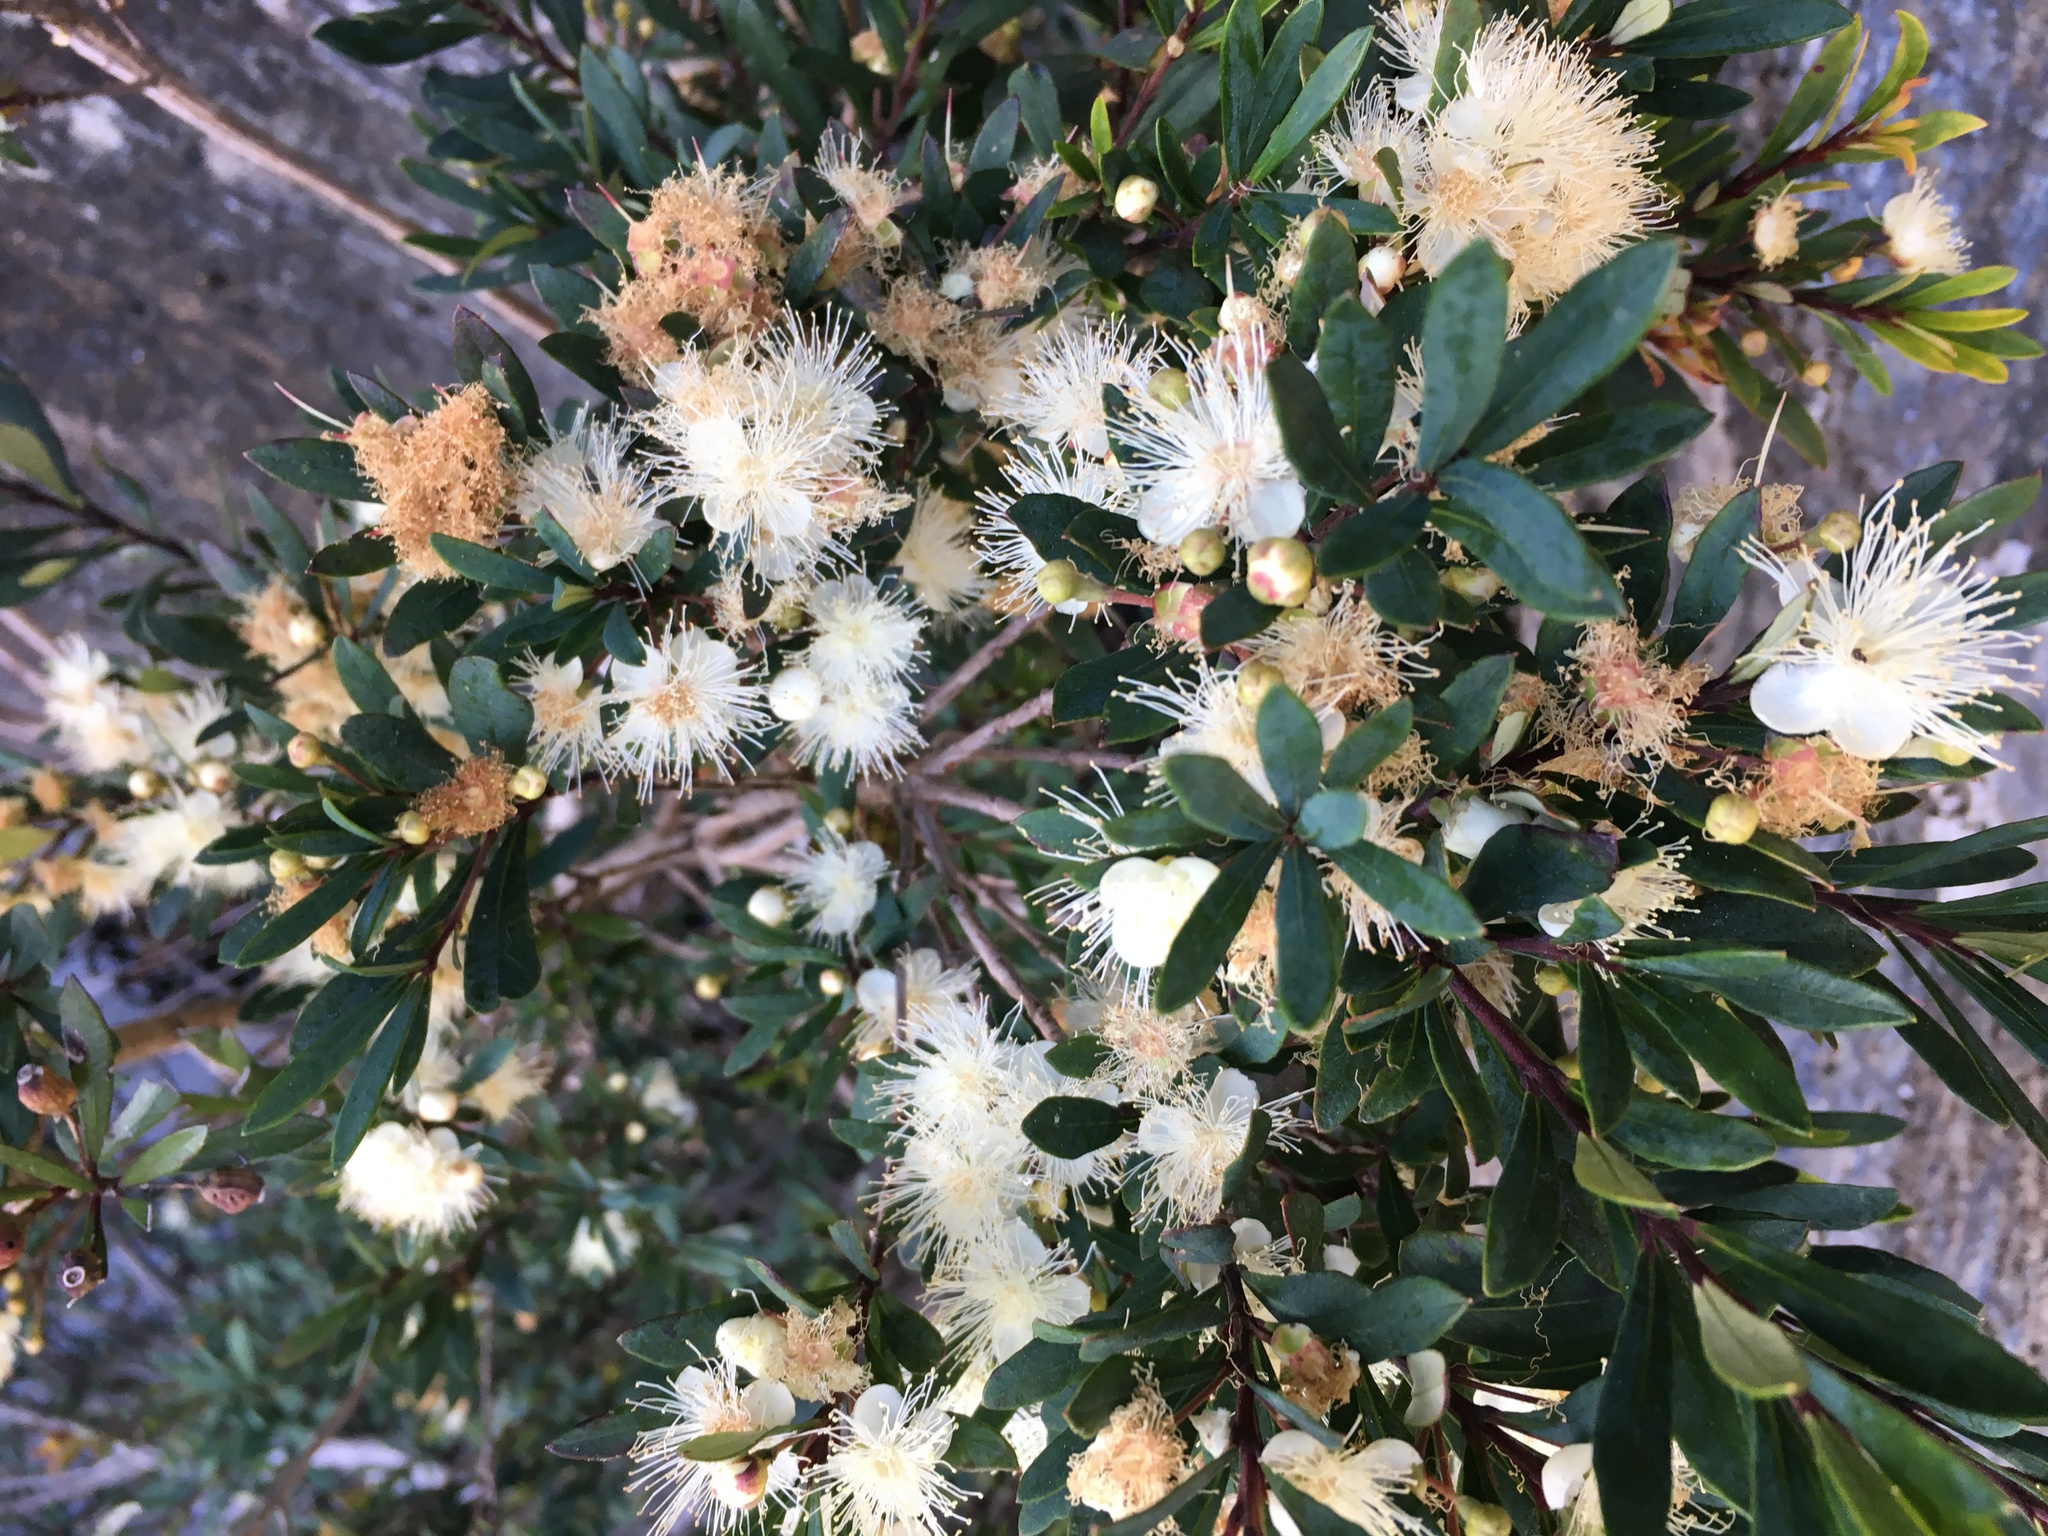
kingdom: Plantae
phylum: Tracheophyta
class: Magnoliopsida
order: Myrtales
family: Myrtaceae
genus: Myrceugenia
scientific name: Myrceugenia lanceolata
